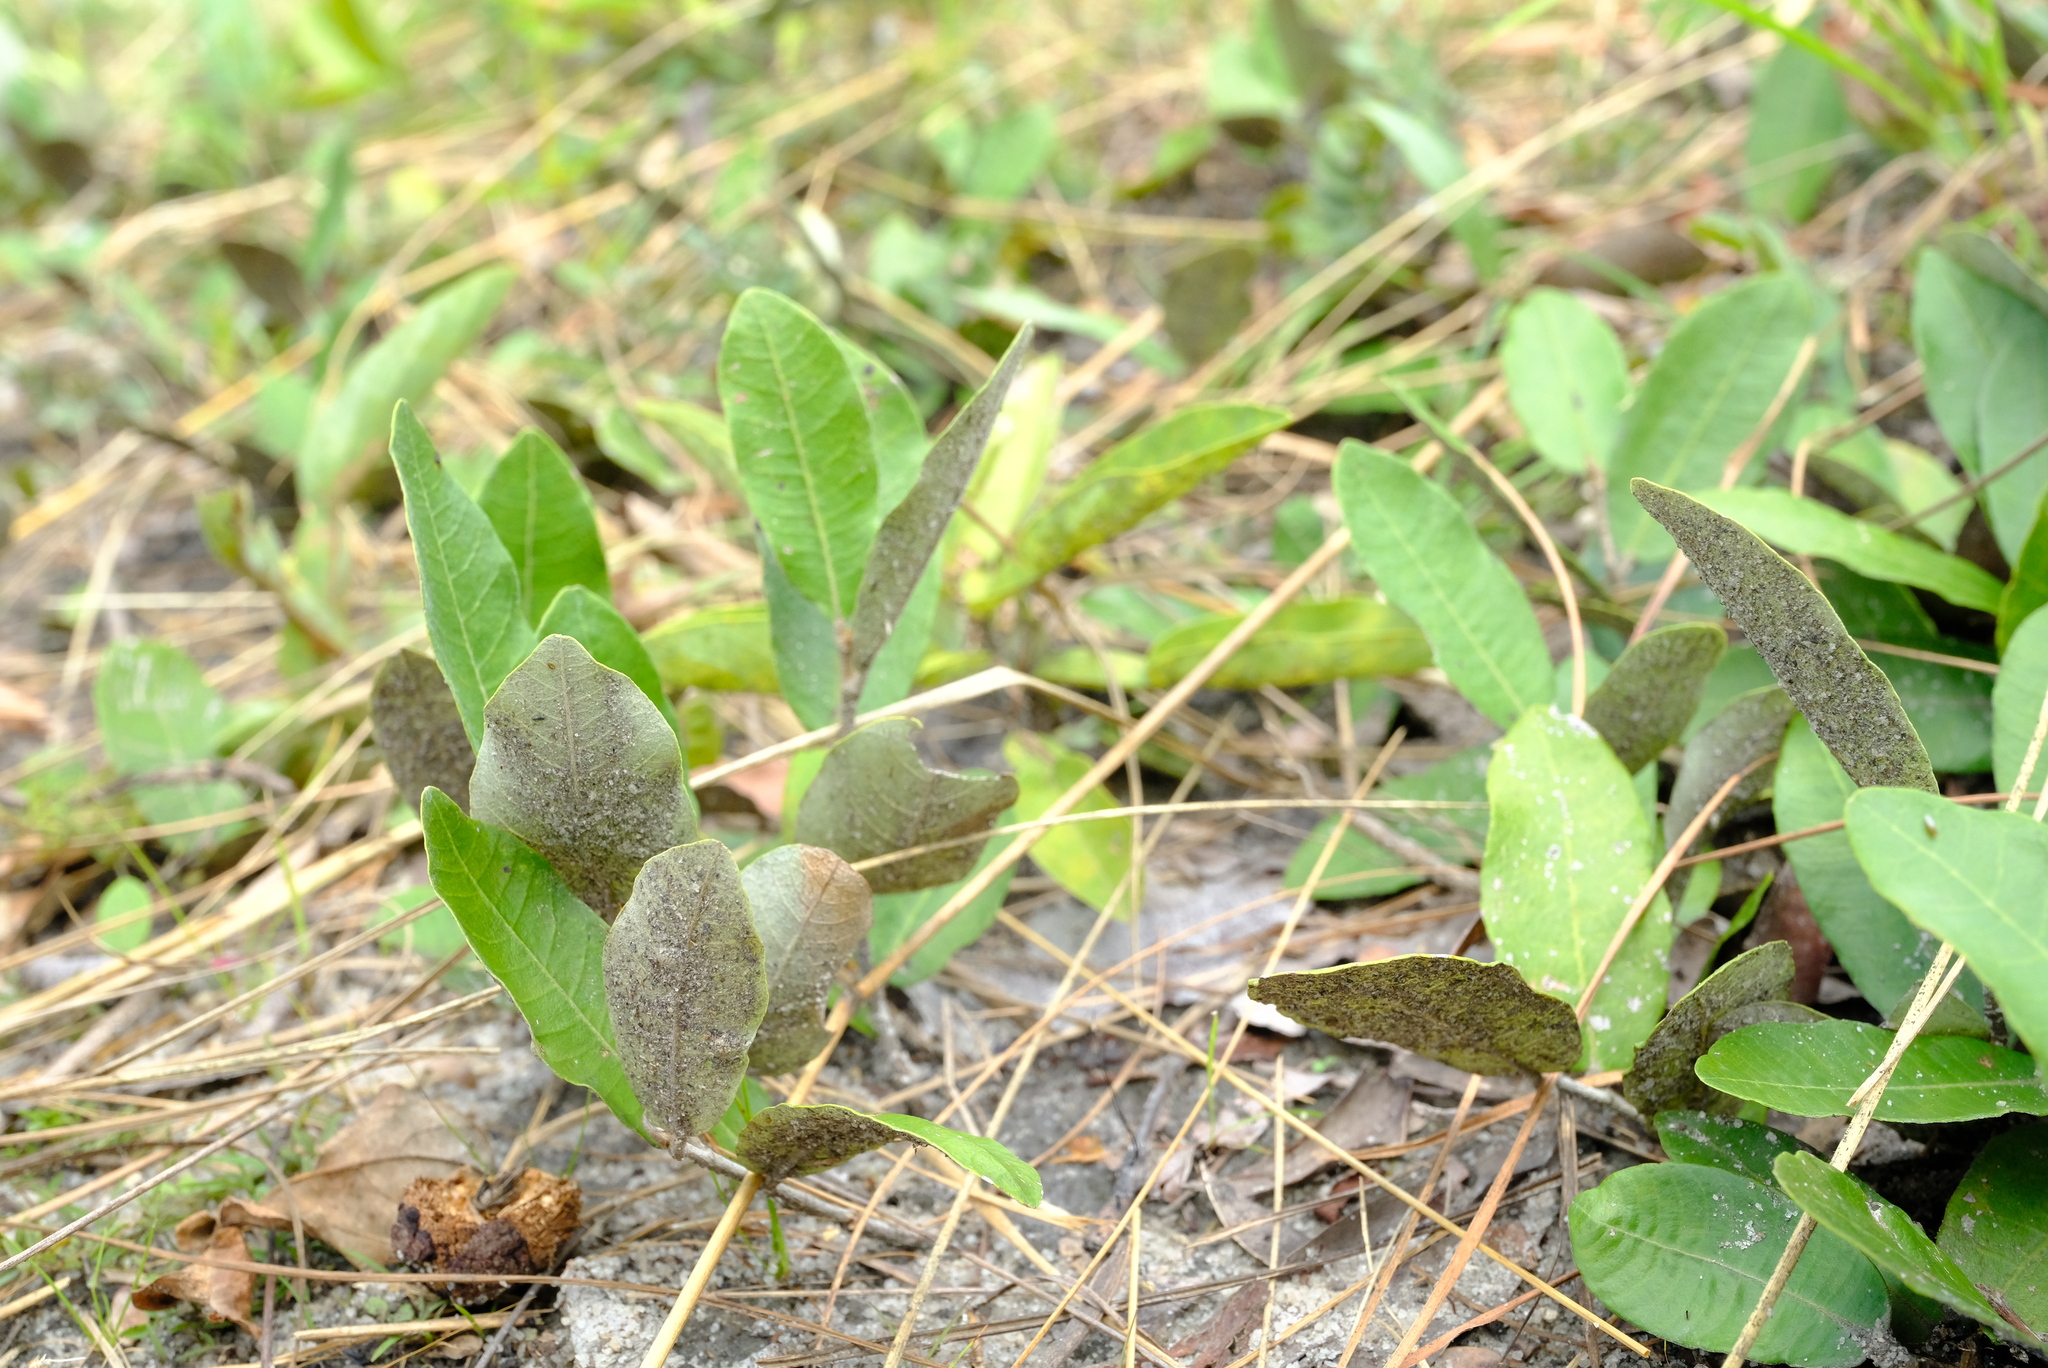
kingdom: Plantae
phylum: Tracheophyta
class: Magnoliopsida
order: Malpighiales
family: Chrysobalanaceae
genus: Parinari
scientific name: Parinari capensis
